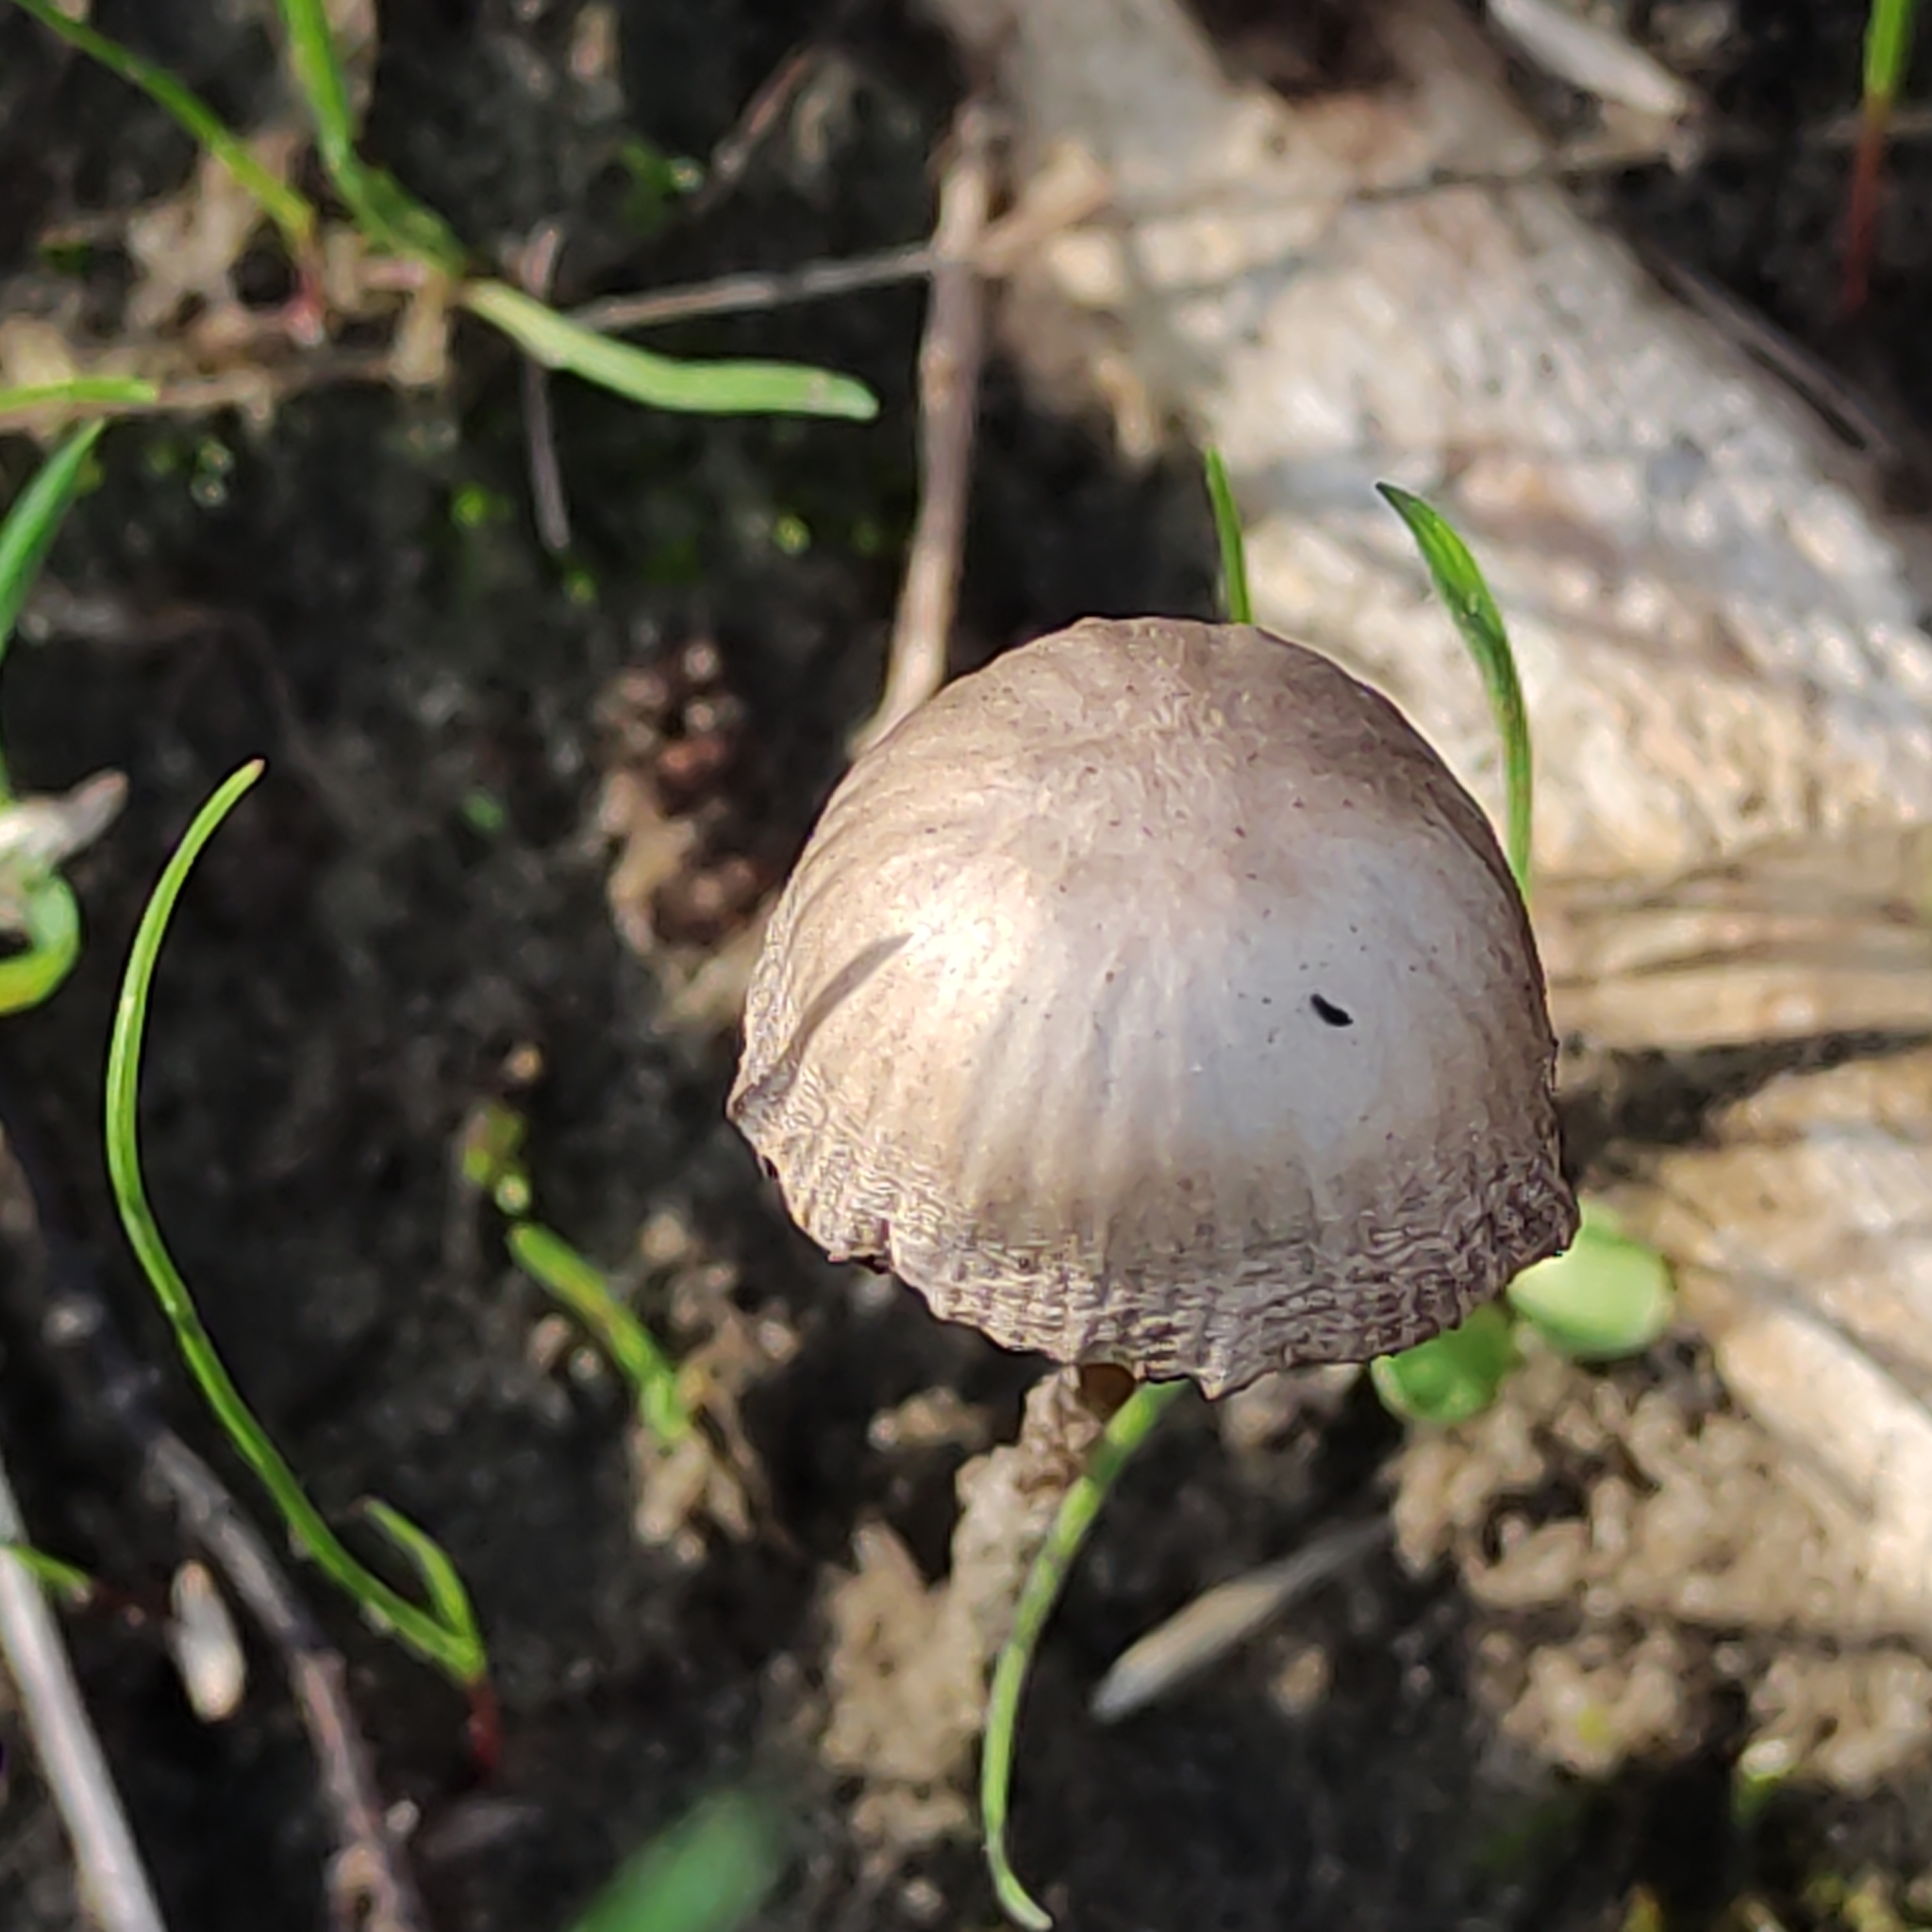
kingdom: Fungi
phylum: Basidiomycota
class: Agaricomycetes
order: Agaricales
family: Bolbitiaceae
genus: Panaeolus
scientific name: Panaeolus papilionaceus
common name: Petticoat mottlegill
